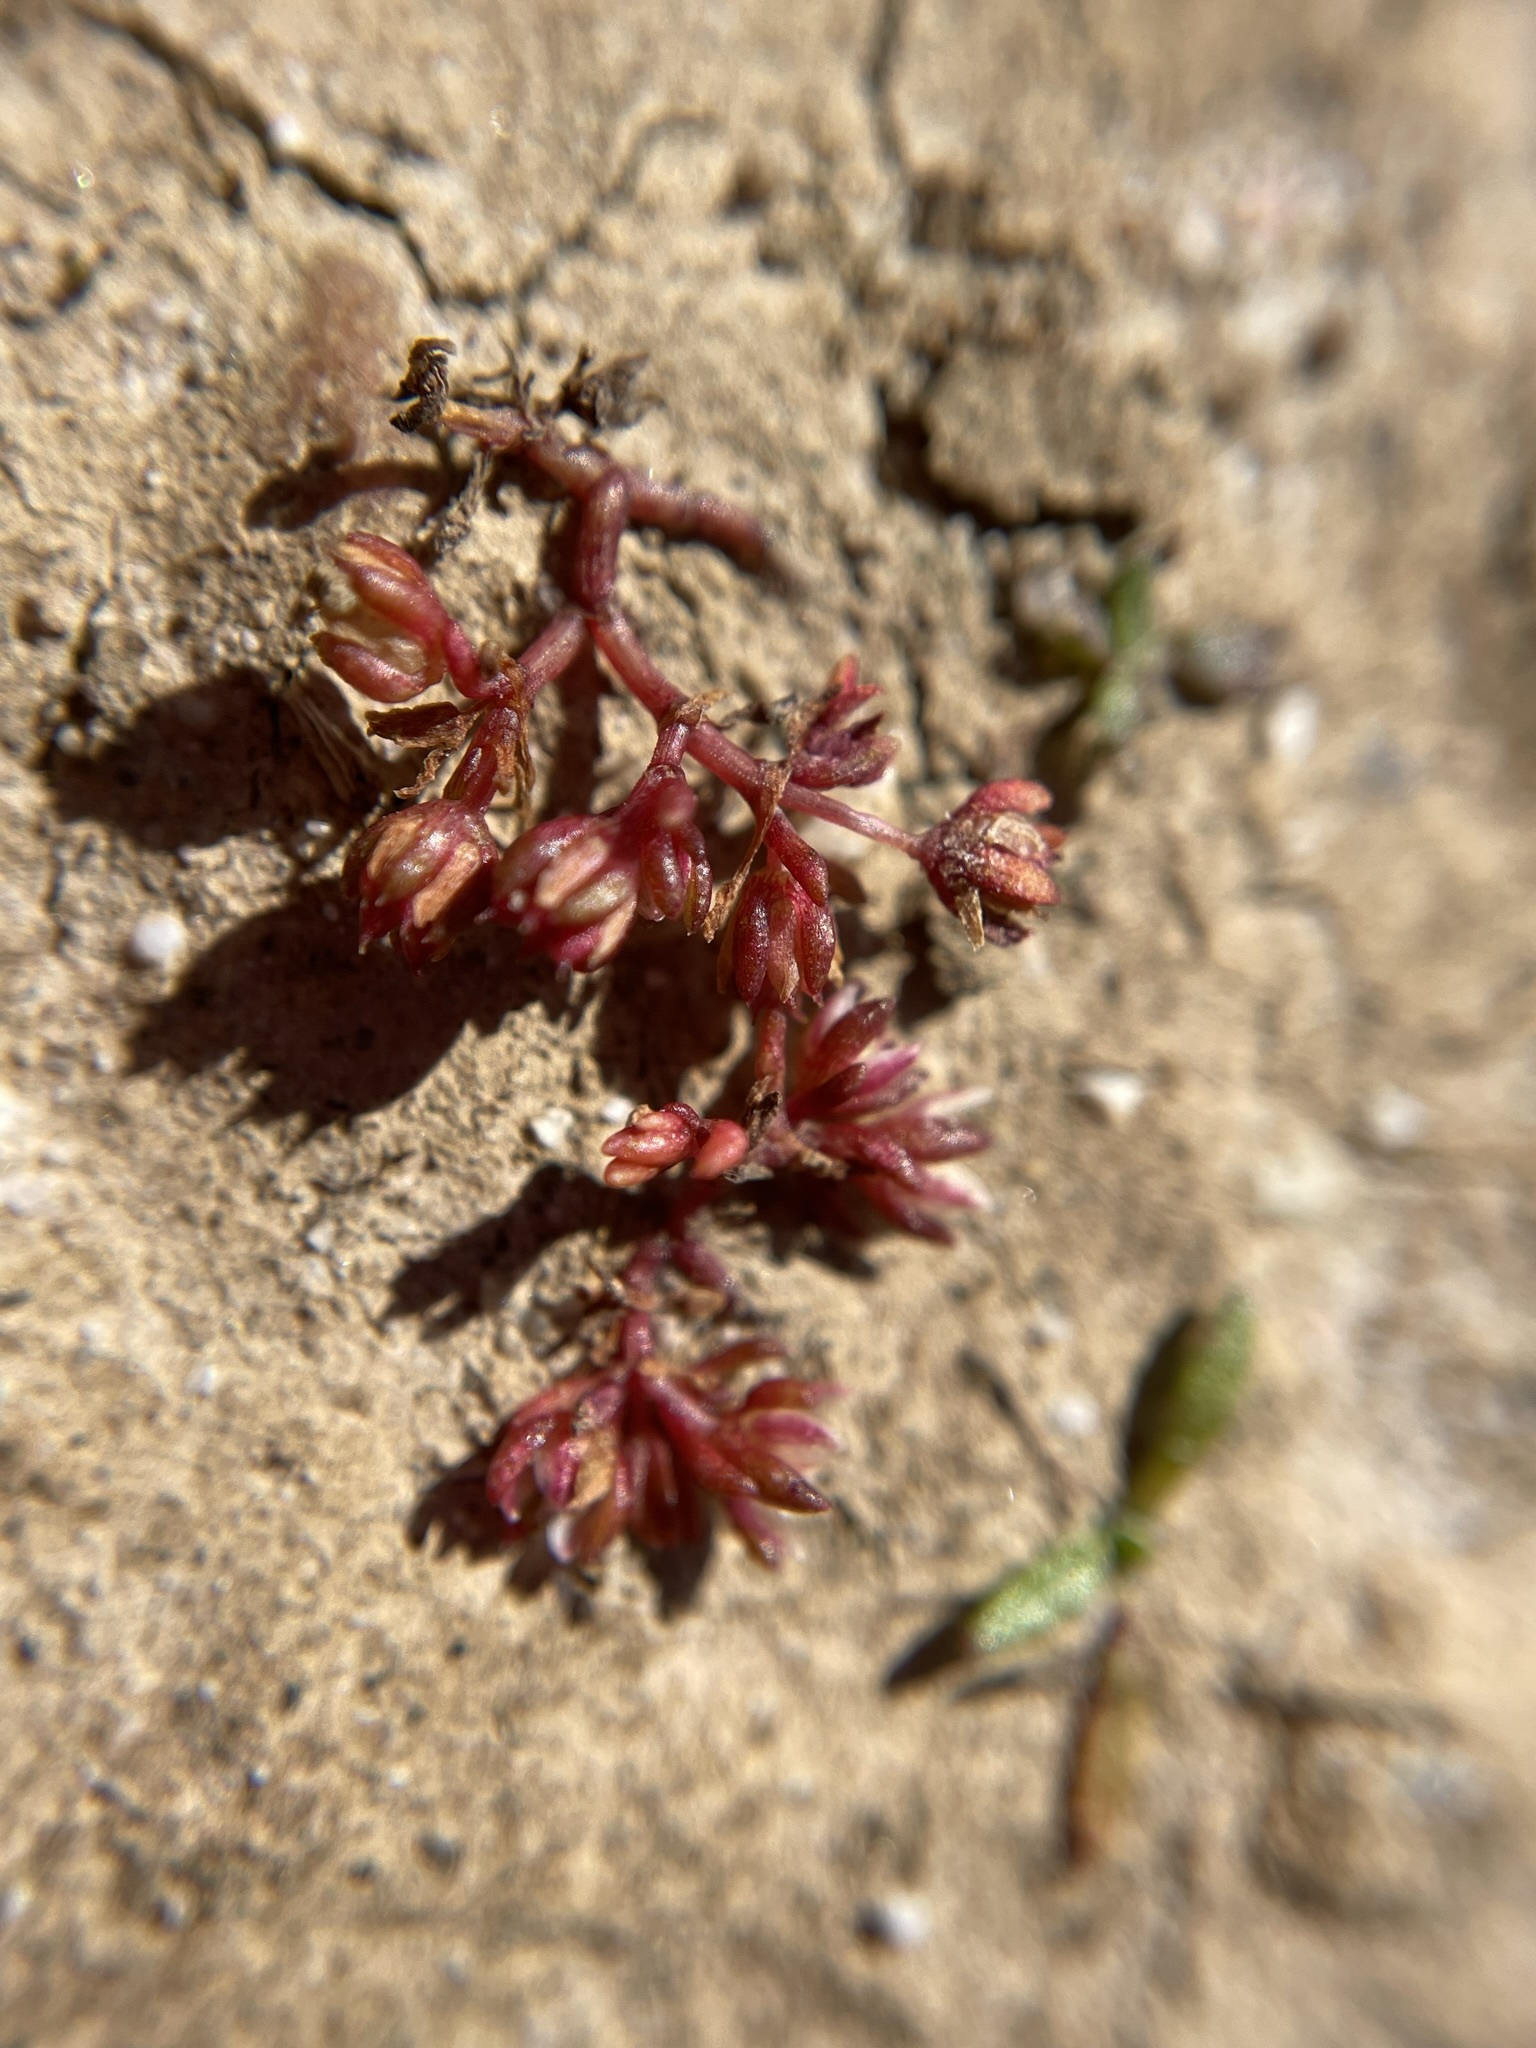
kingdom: Plantae
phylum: Tracheophyta
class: Magnoliopsida
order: Saxifragales
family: Crassulaceae
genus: Crassula
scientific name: Crassula decumbens
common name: Scilly pigmyweed
